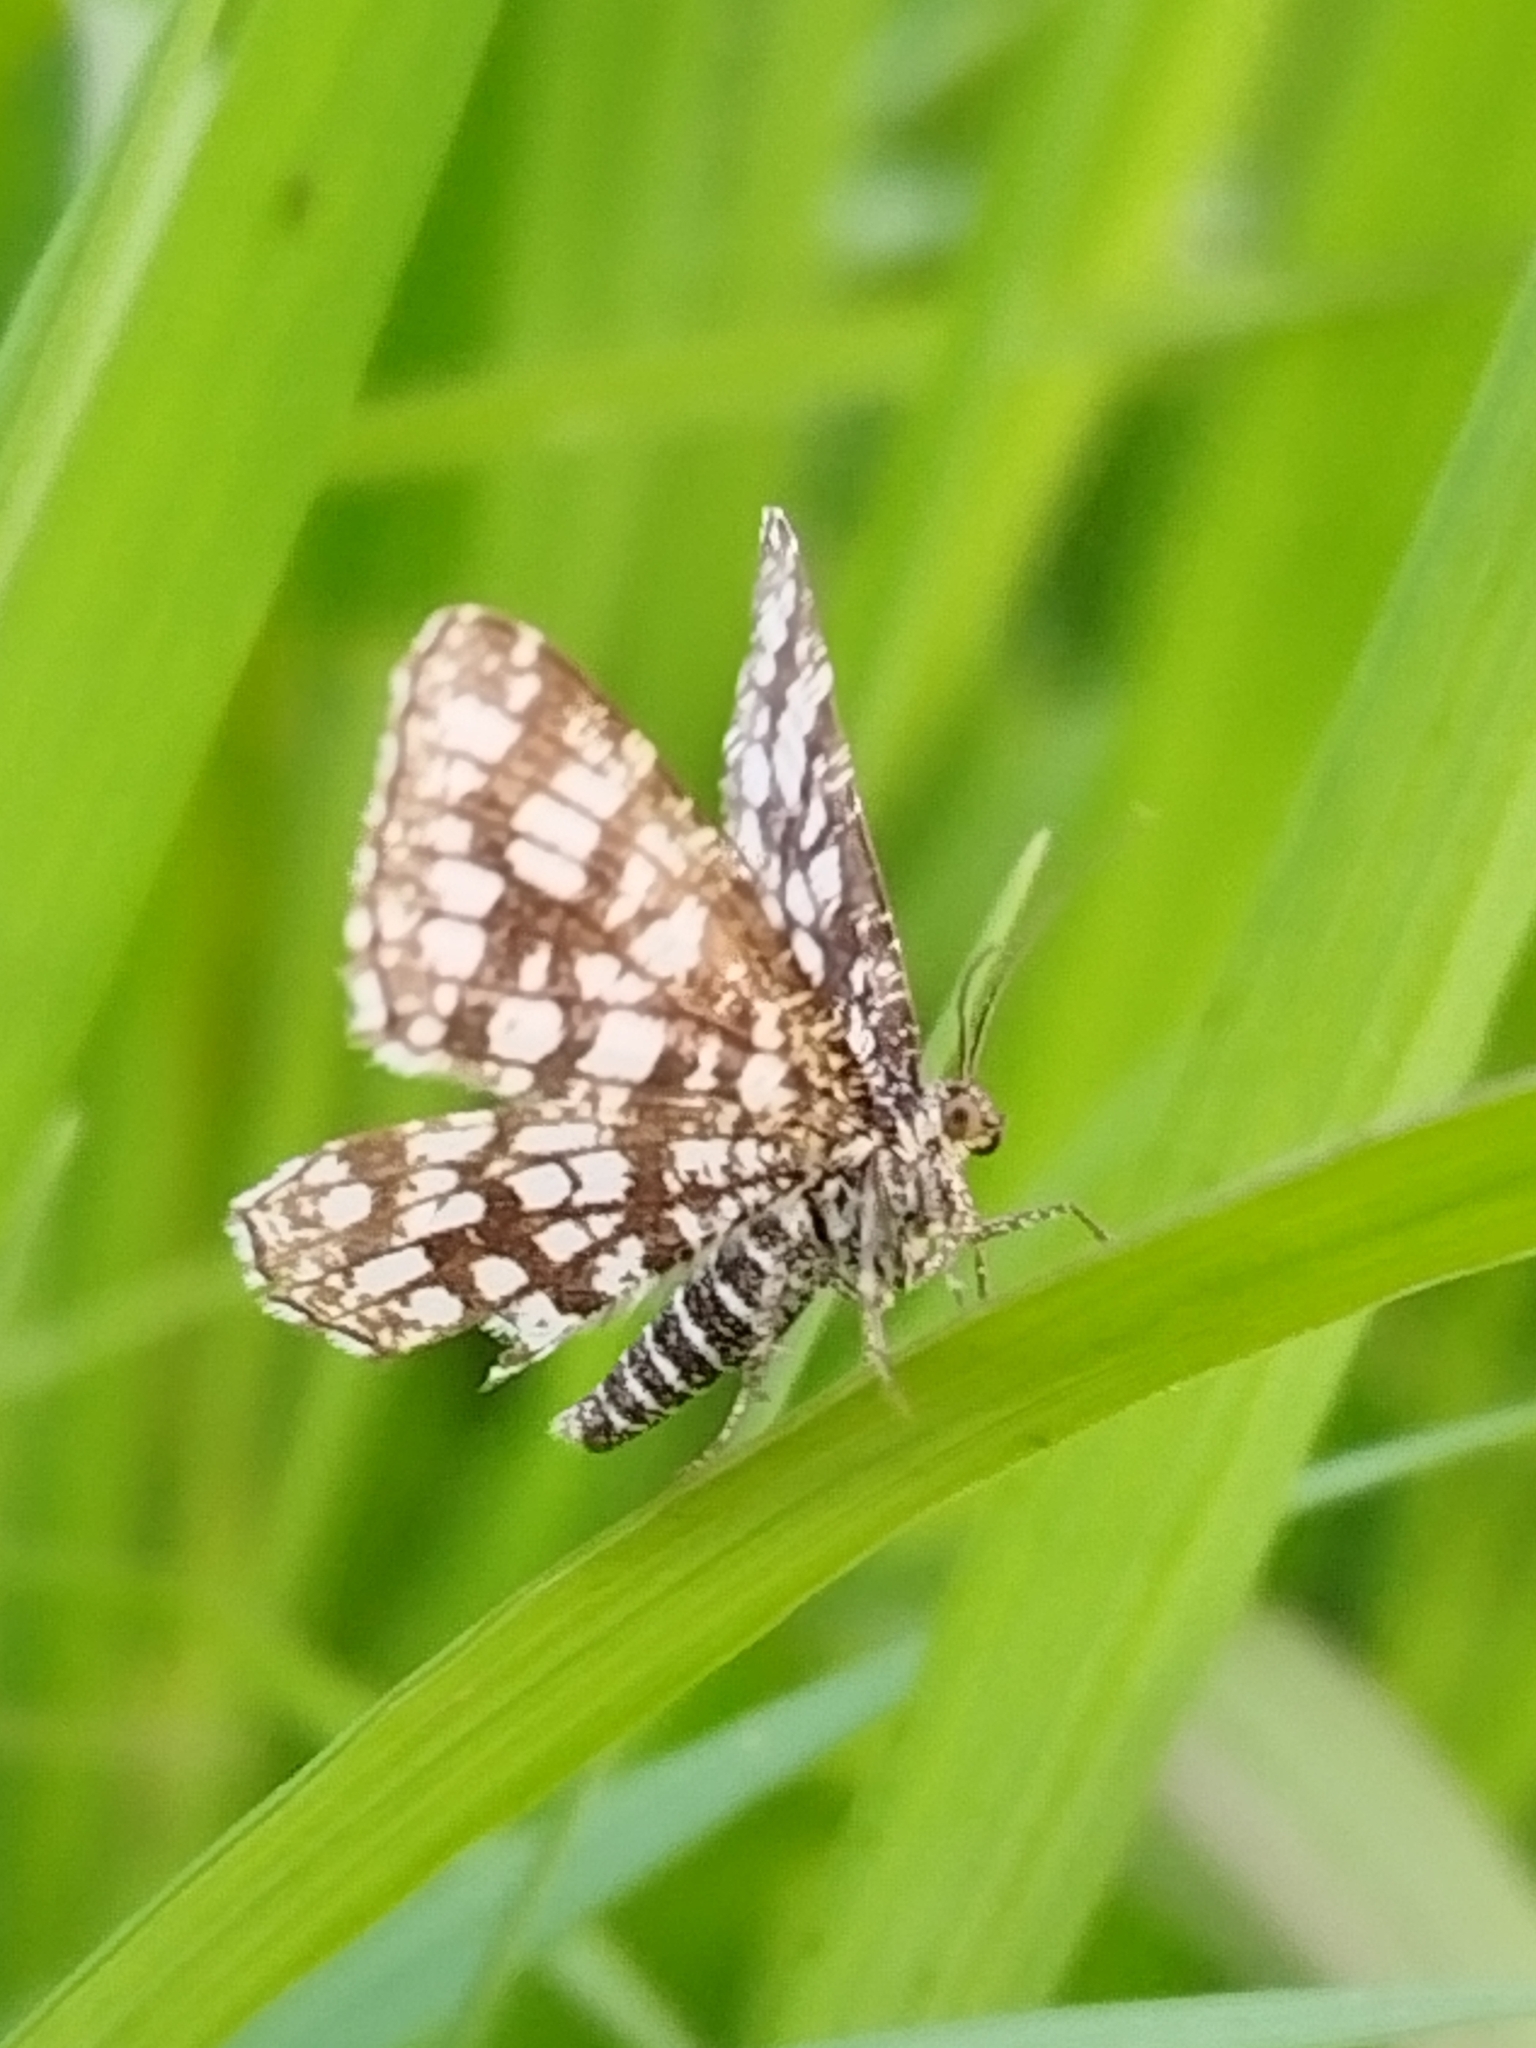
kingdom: Animalia
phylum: Arthropoda
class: Insecta
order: Lepidoptera
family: Geometridae
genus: Chiasmia
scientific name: Chiasmia clathrata
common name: Latticed heath
